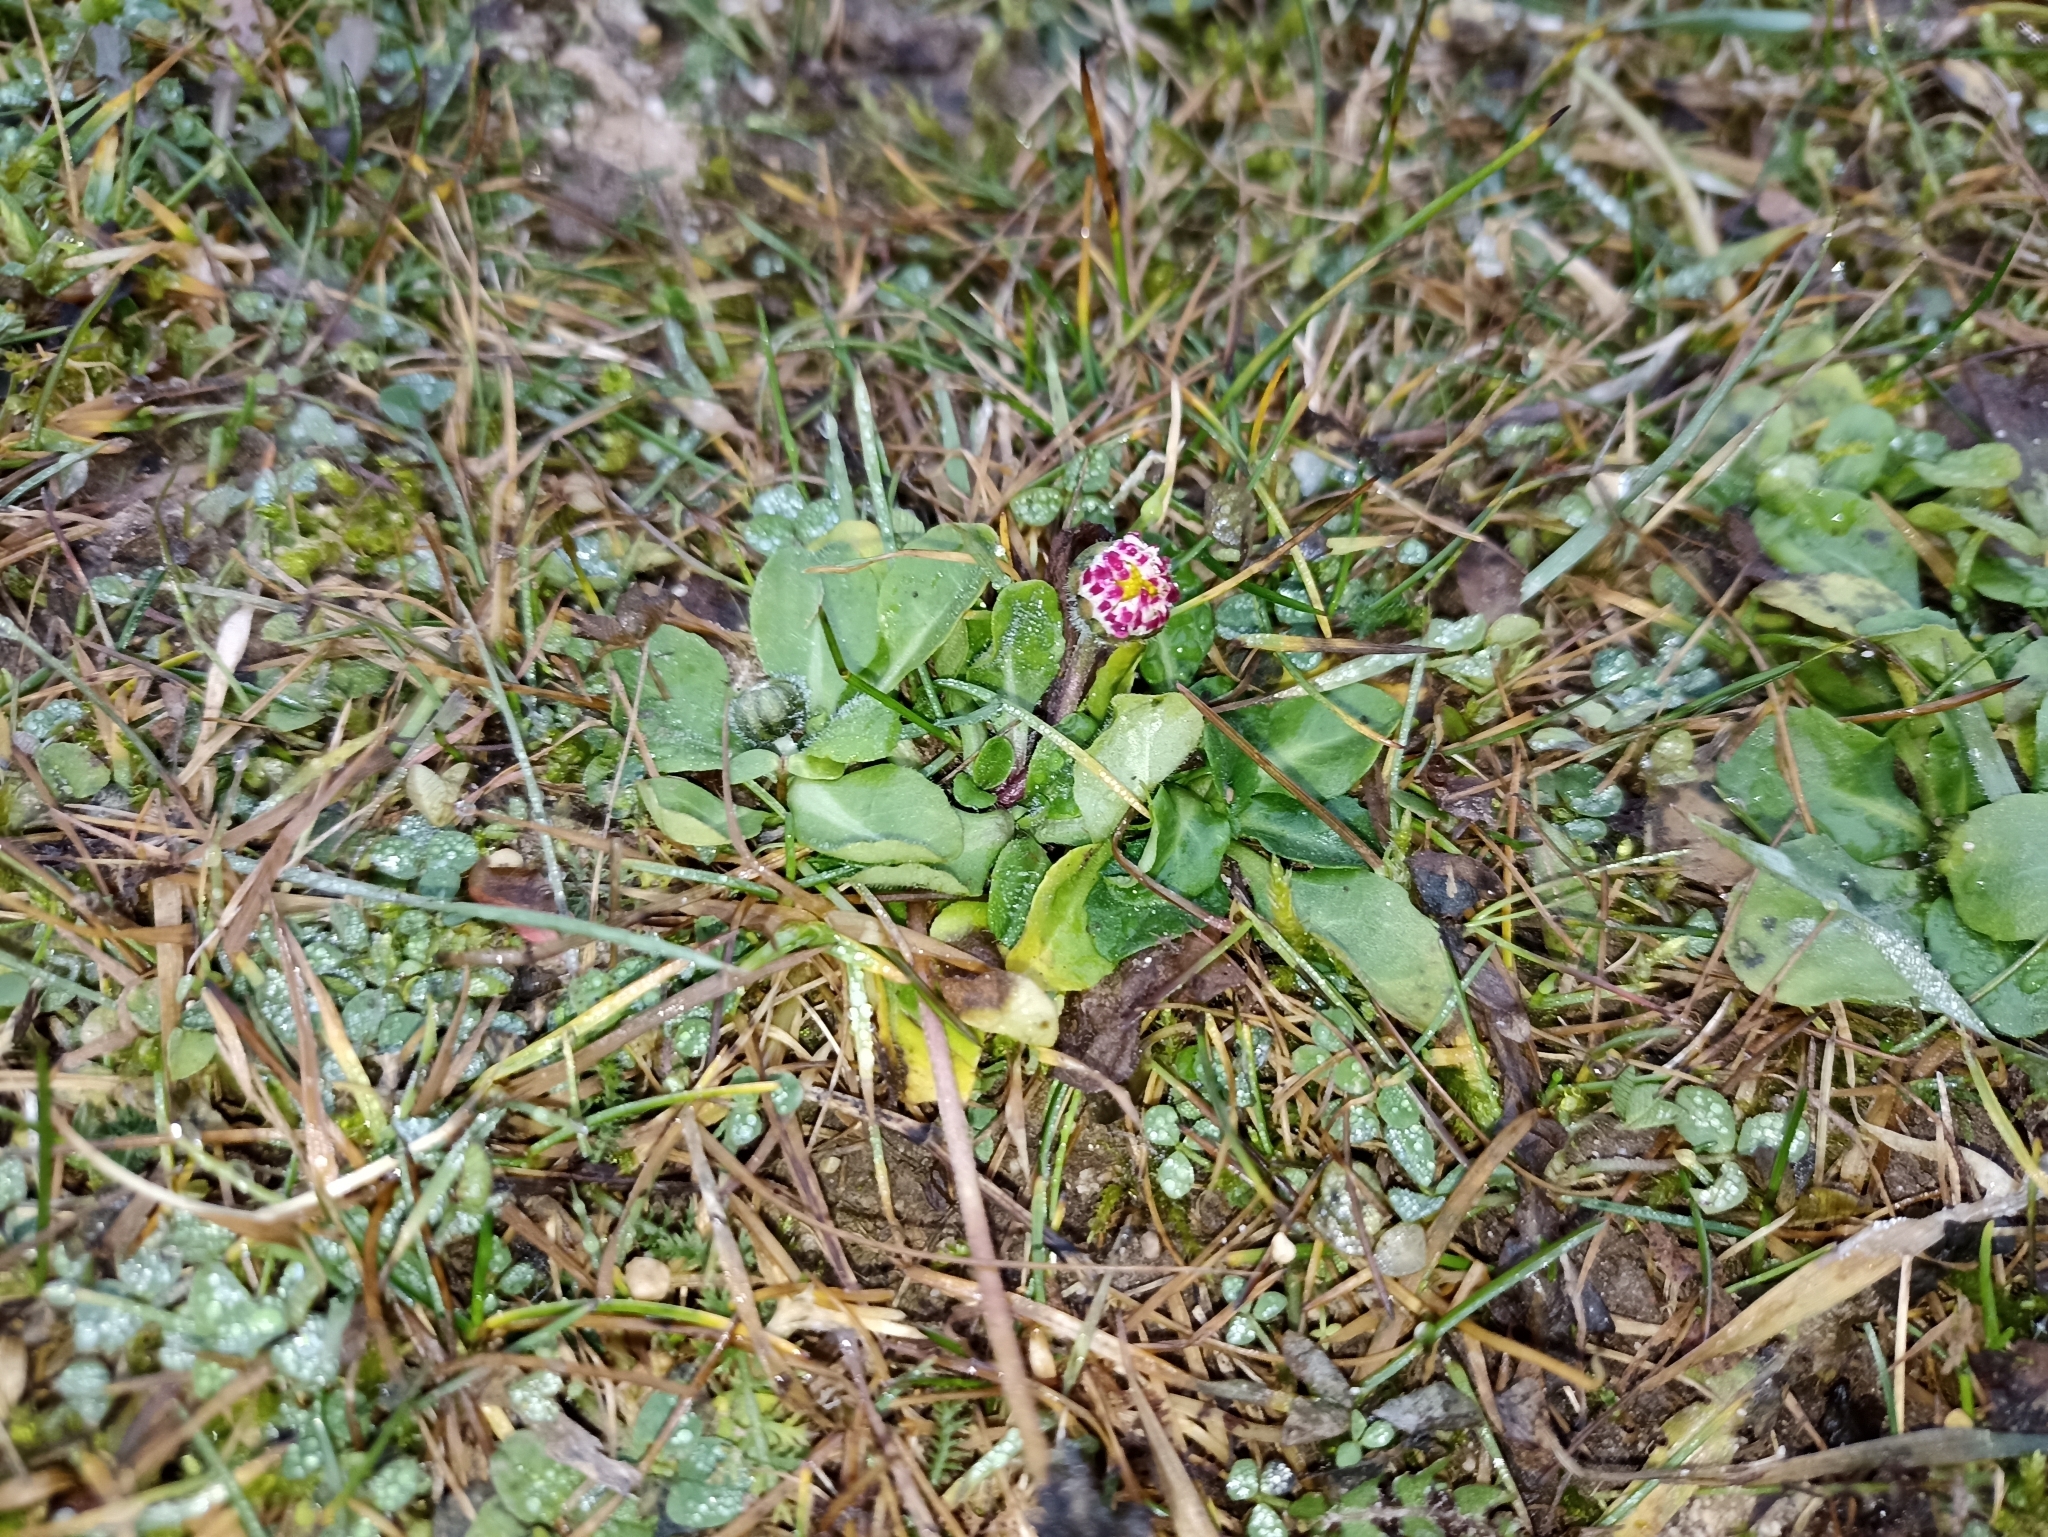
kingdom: Plantae
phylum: Tracheophyta
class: Magnoliopsida
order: Asterales
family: Asteraceae
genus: Bellis
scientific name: Bellis perennis
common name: Lawndaisy
